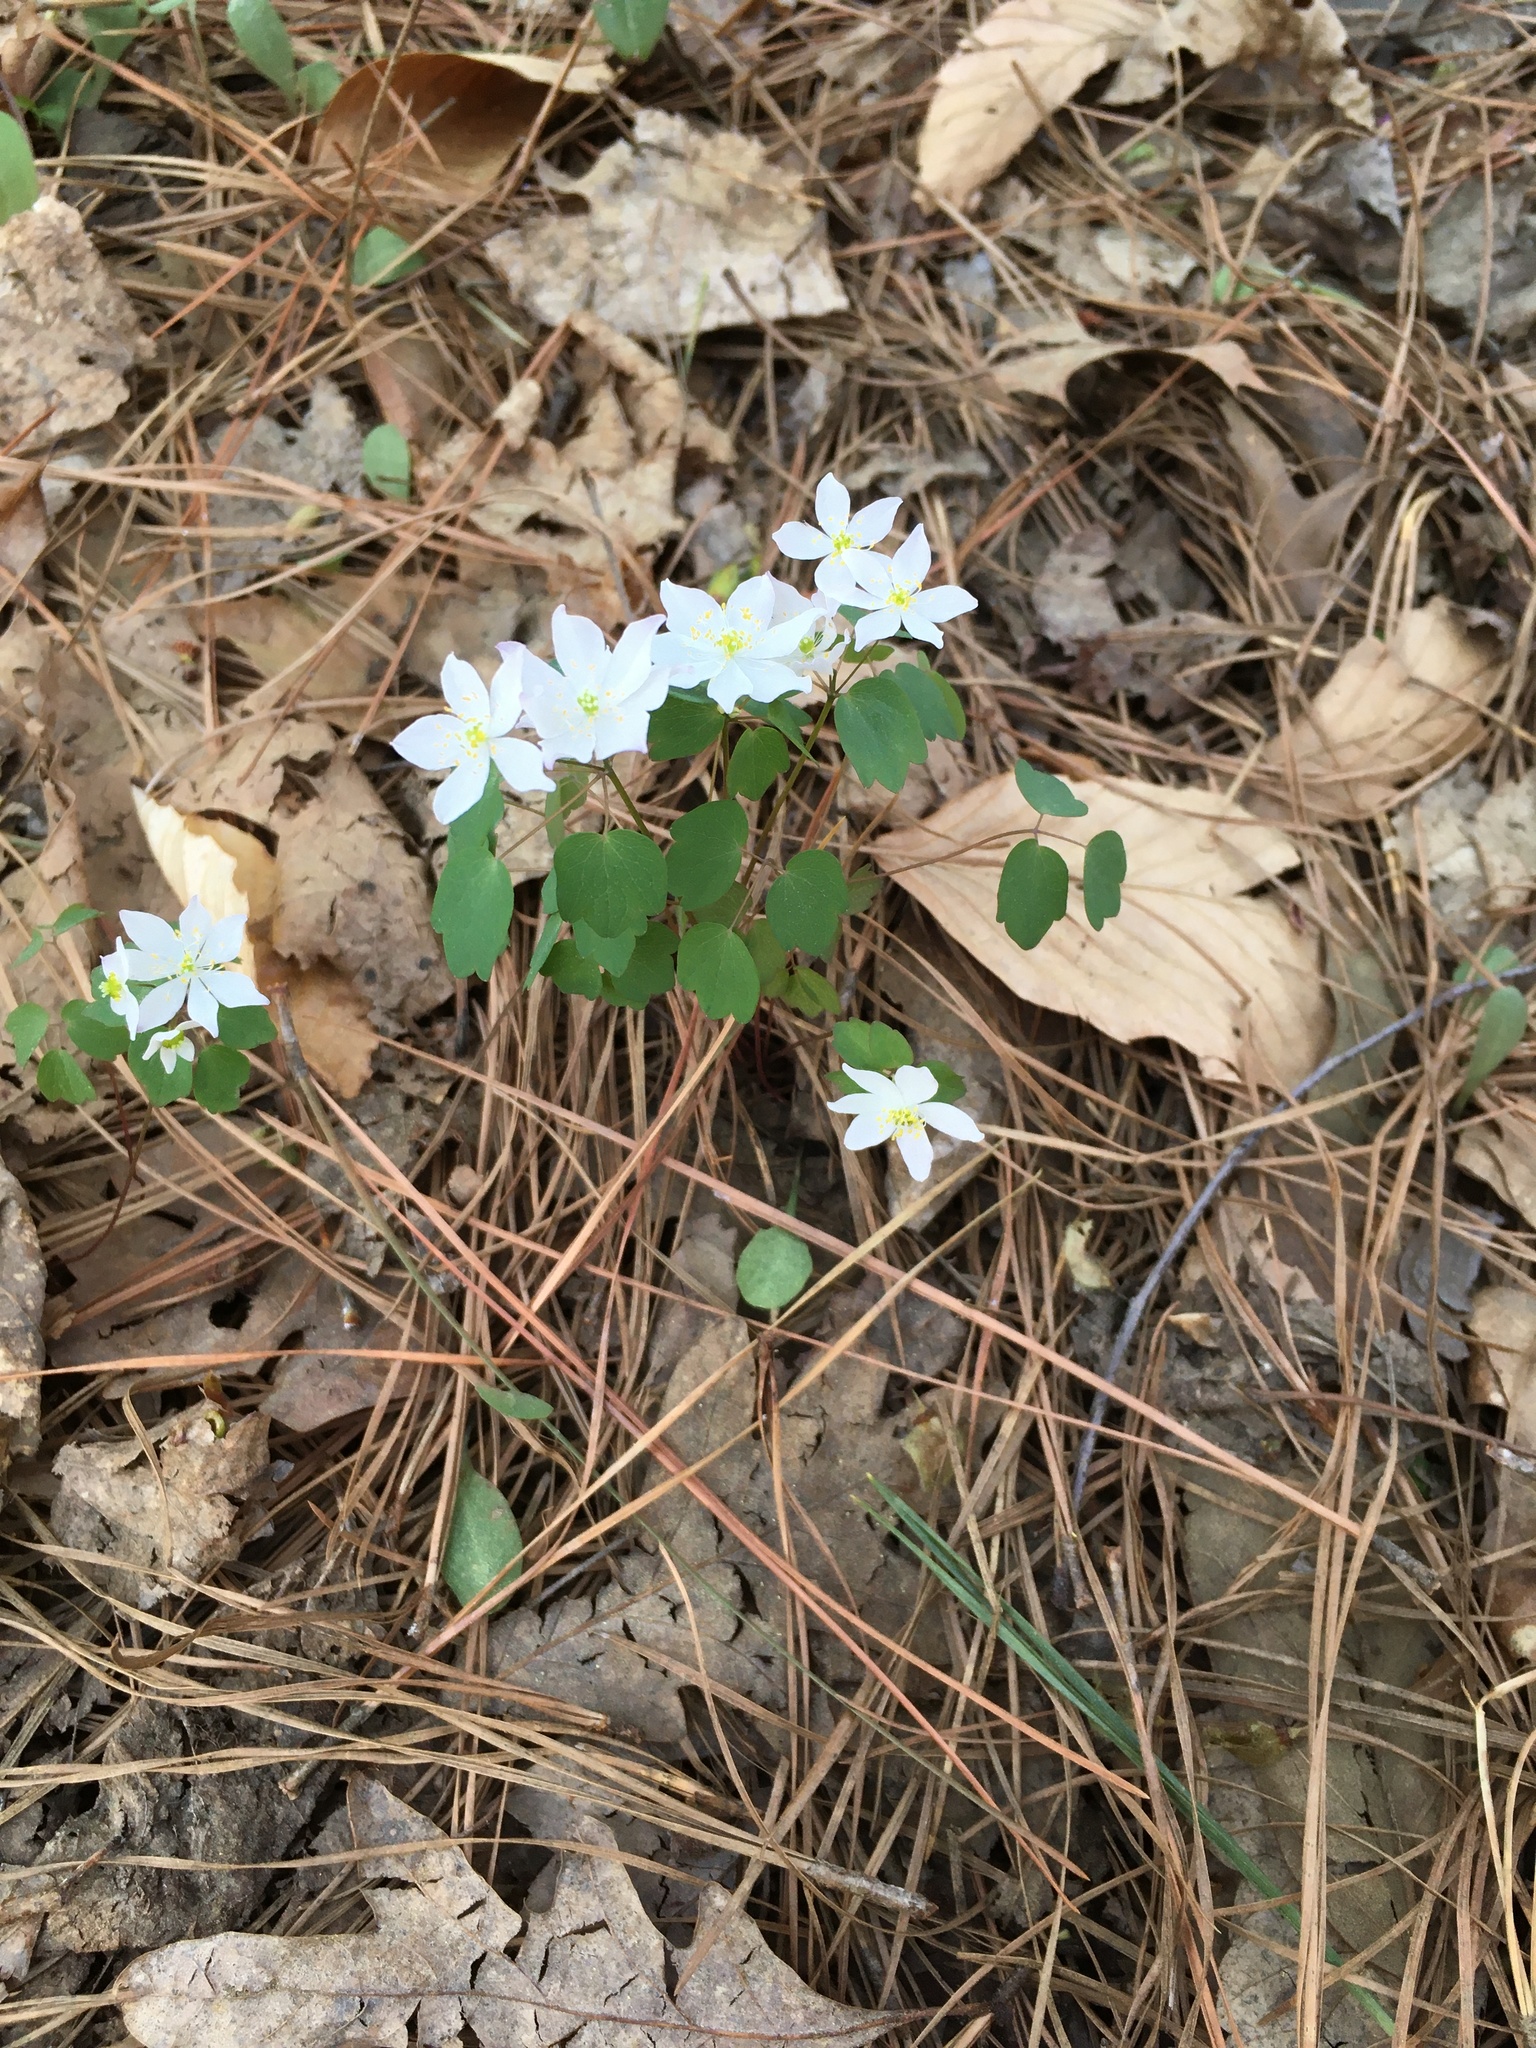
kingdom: Plantae
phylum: Tracheophyta
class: Magnoliopsida
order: Ranunculales
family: Ranunculaceae
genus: Thalictrum
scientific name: Thalictrum thalictroides
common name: Rue-anemone
